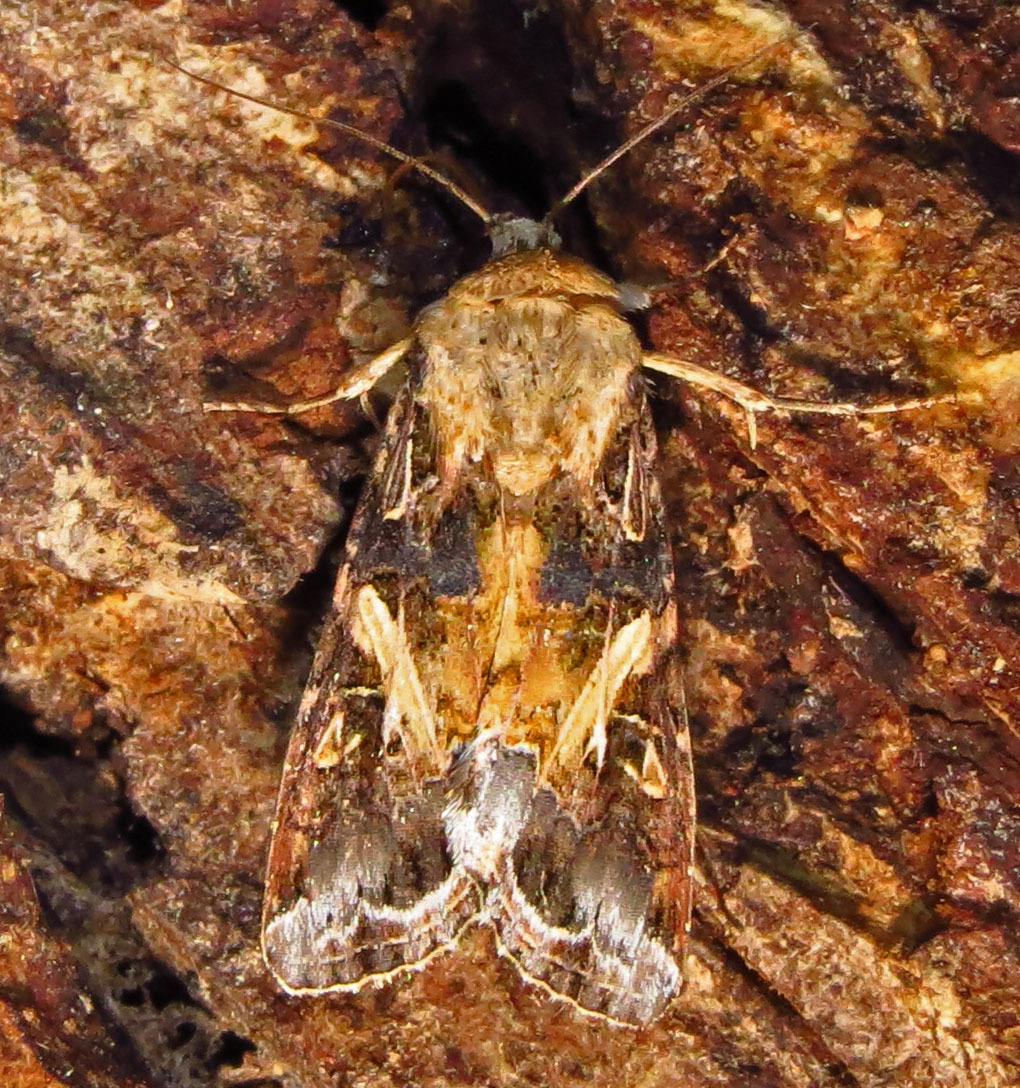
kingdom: Animalia
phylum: Arthropoda
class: Insecta
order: Lepidoptera
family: Noctuidae
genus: Spodoptera
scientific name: Spodoptera ornithogalli
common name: Yellow-striped armyworm
